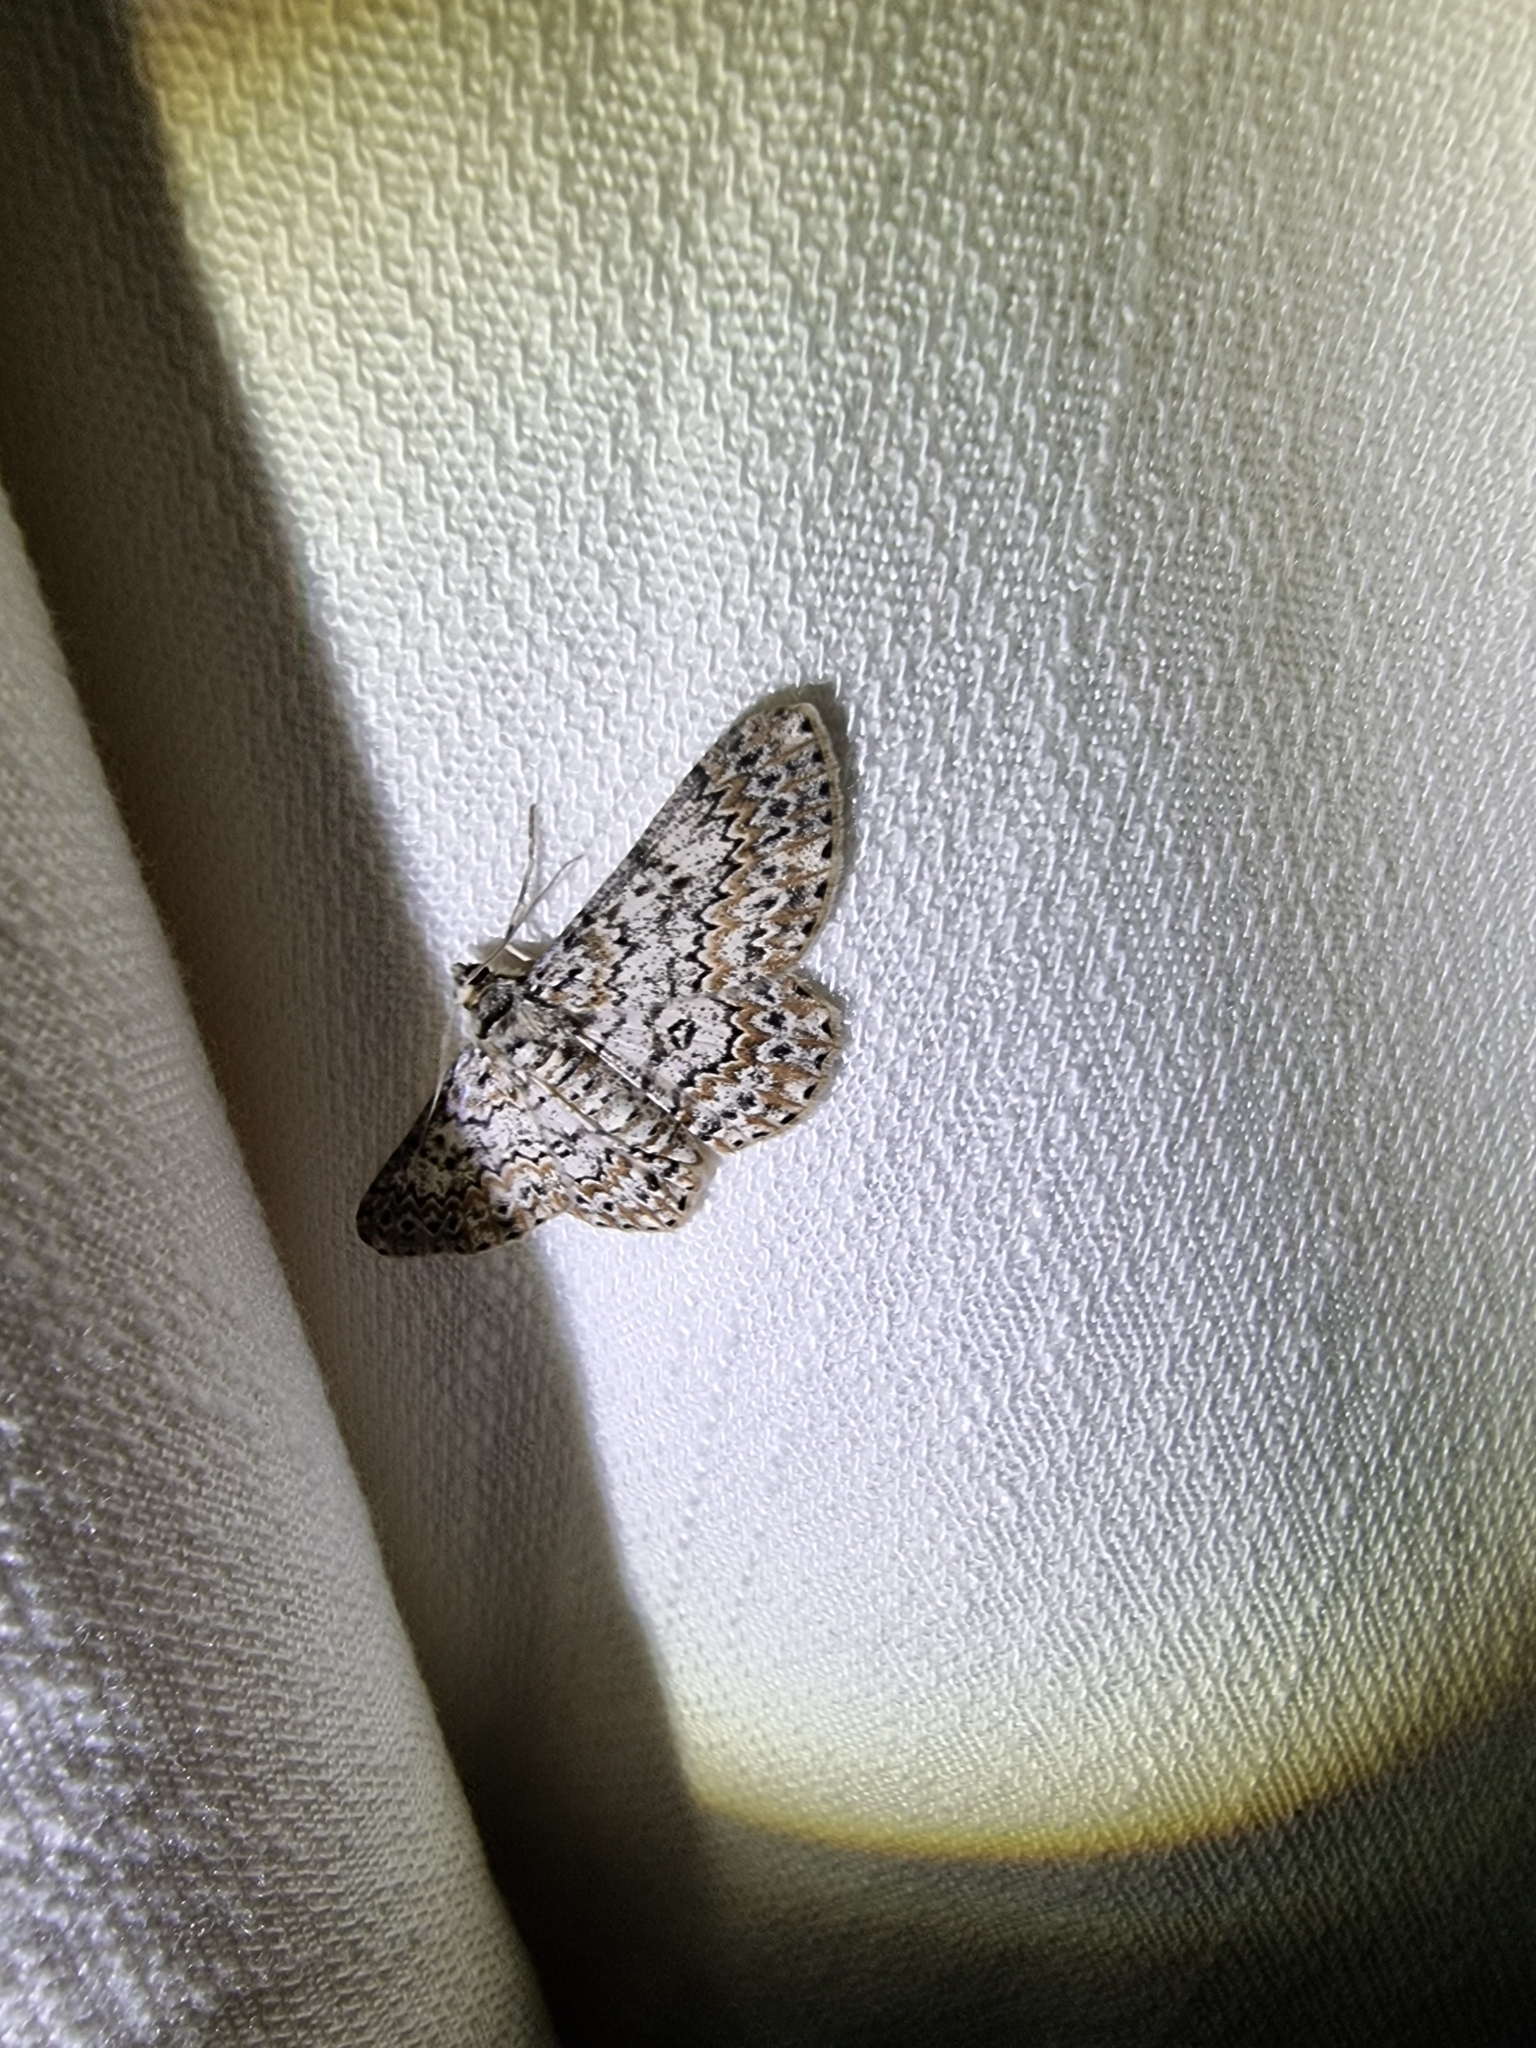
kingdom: Animalia
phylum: Arthropoda
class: Insecta
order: Lepidoptera
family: Geometridae
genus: Cleora
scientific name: Cleora sabulata
